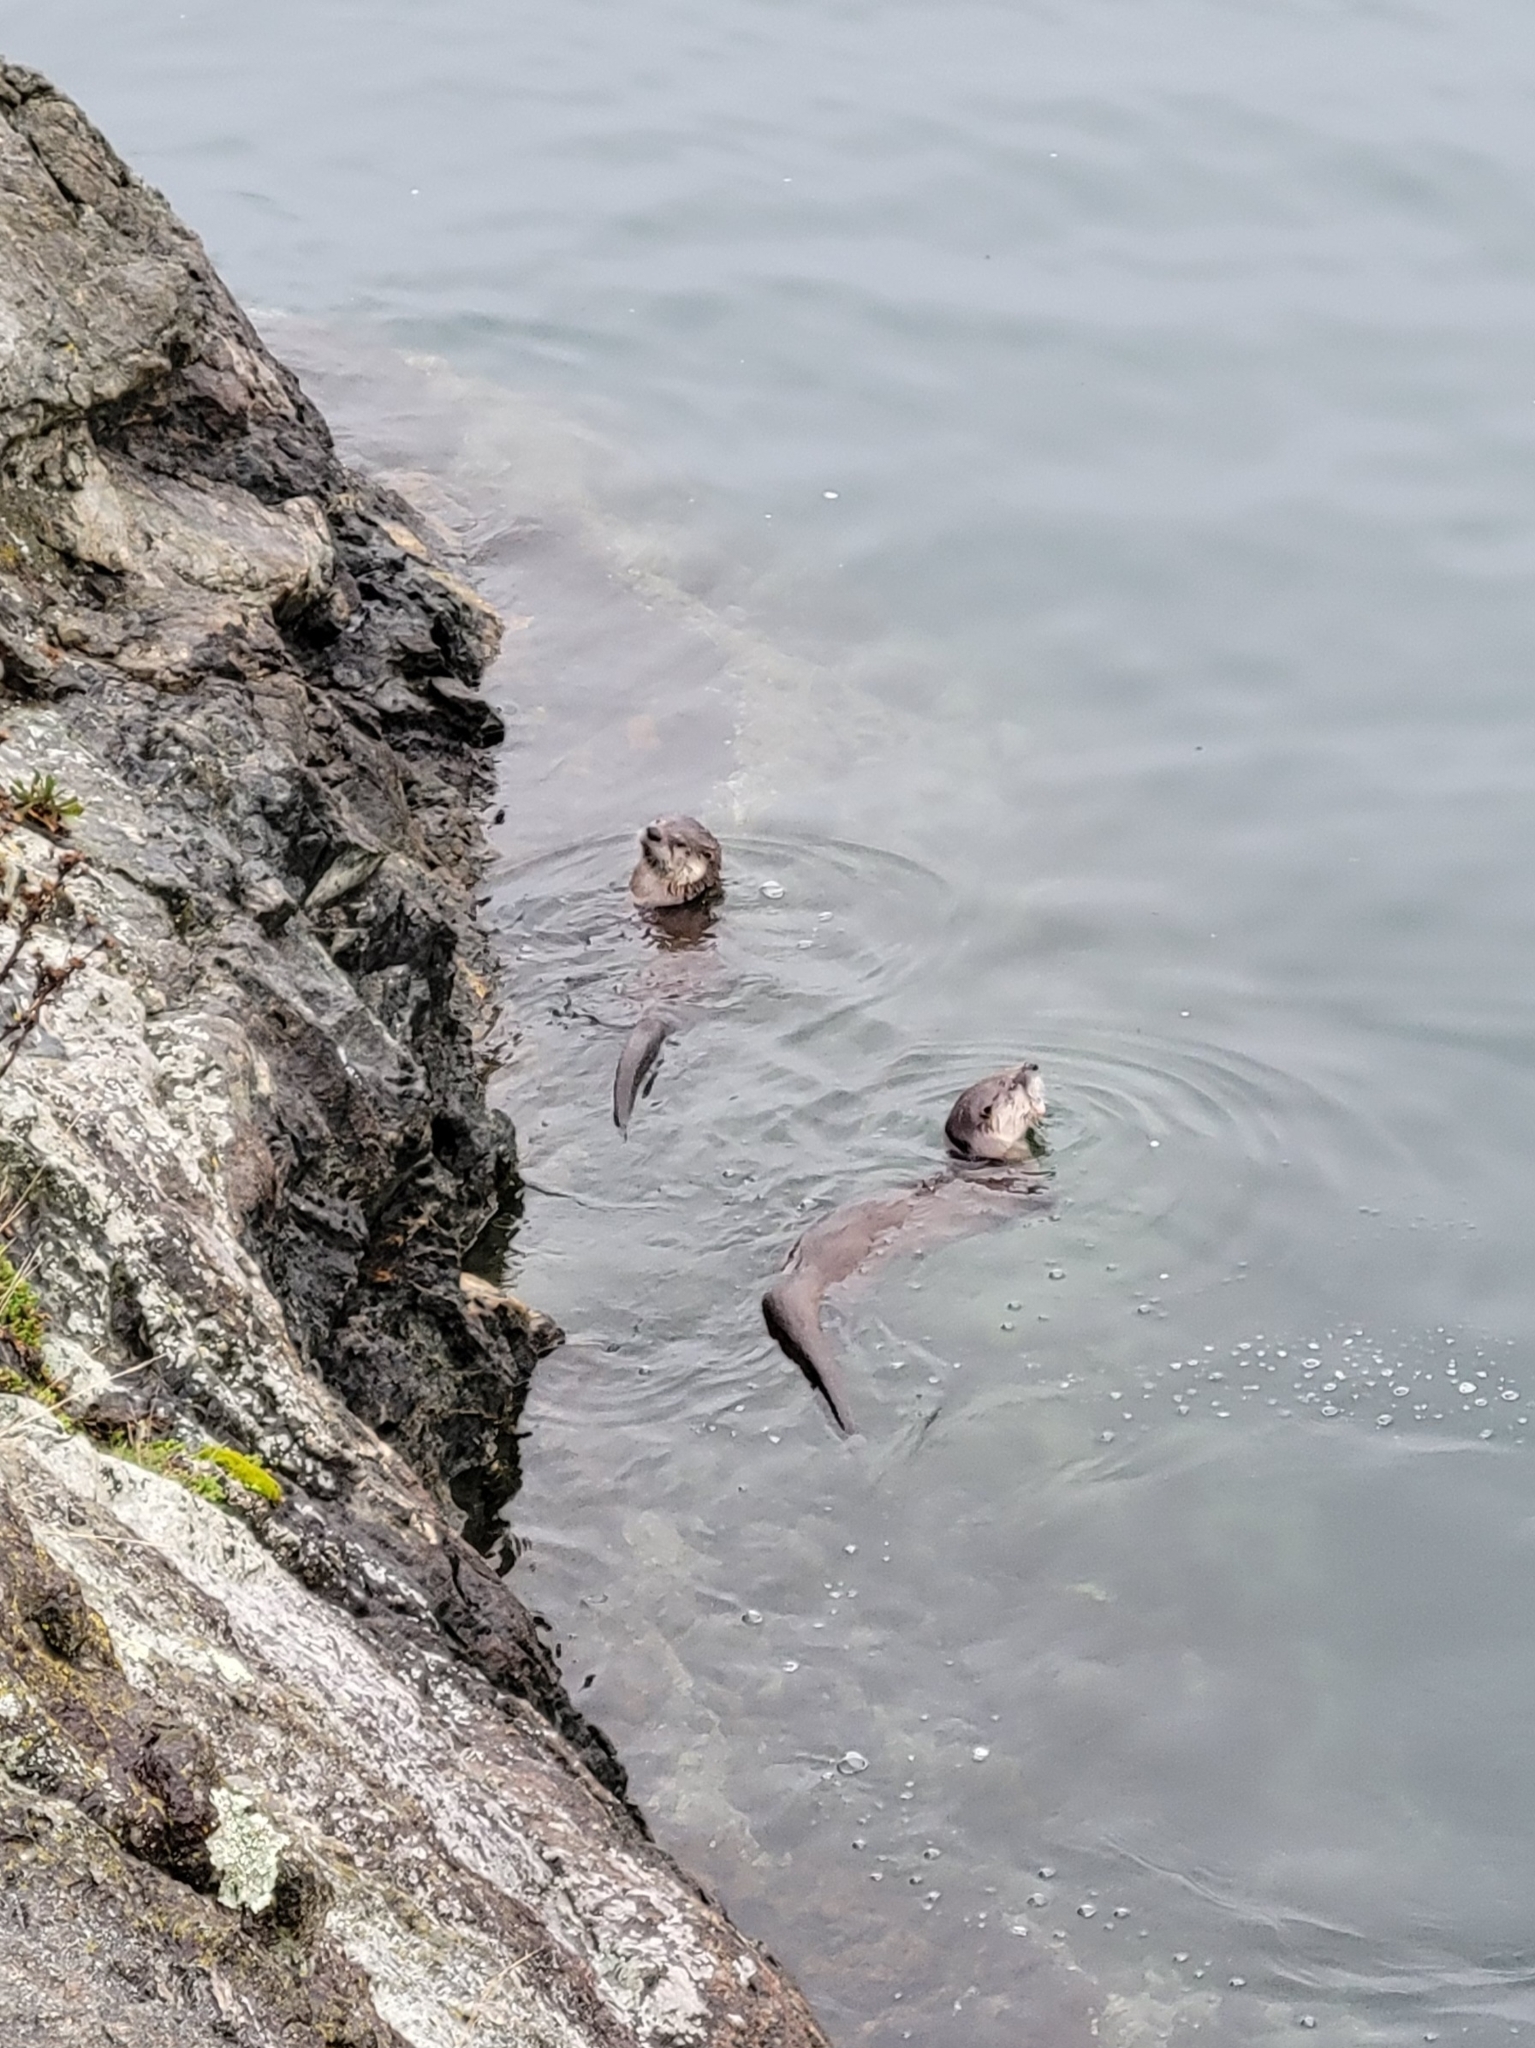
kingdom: Animalia
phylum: Chordata
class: Mammalia
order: Carnivora
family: Mustelidae
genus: Lontra
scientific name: Lontra canadensis
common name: North american river otter
